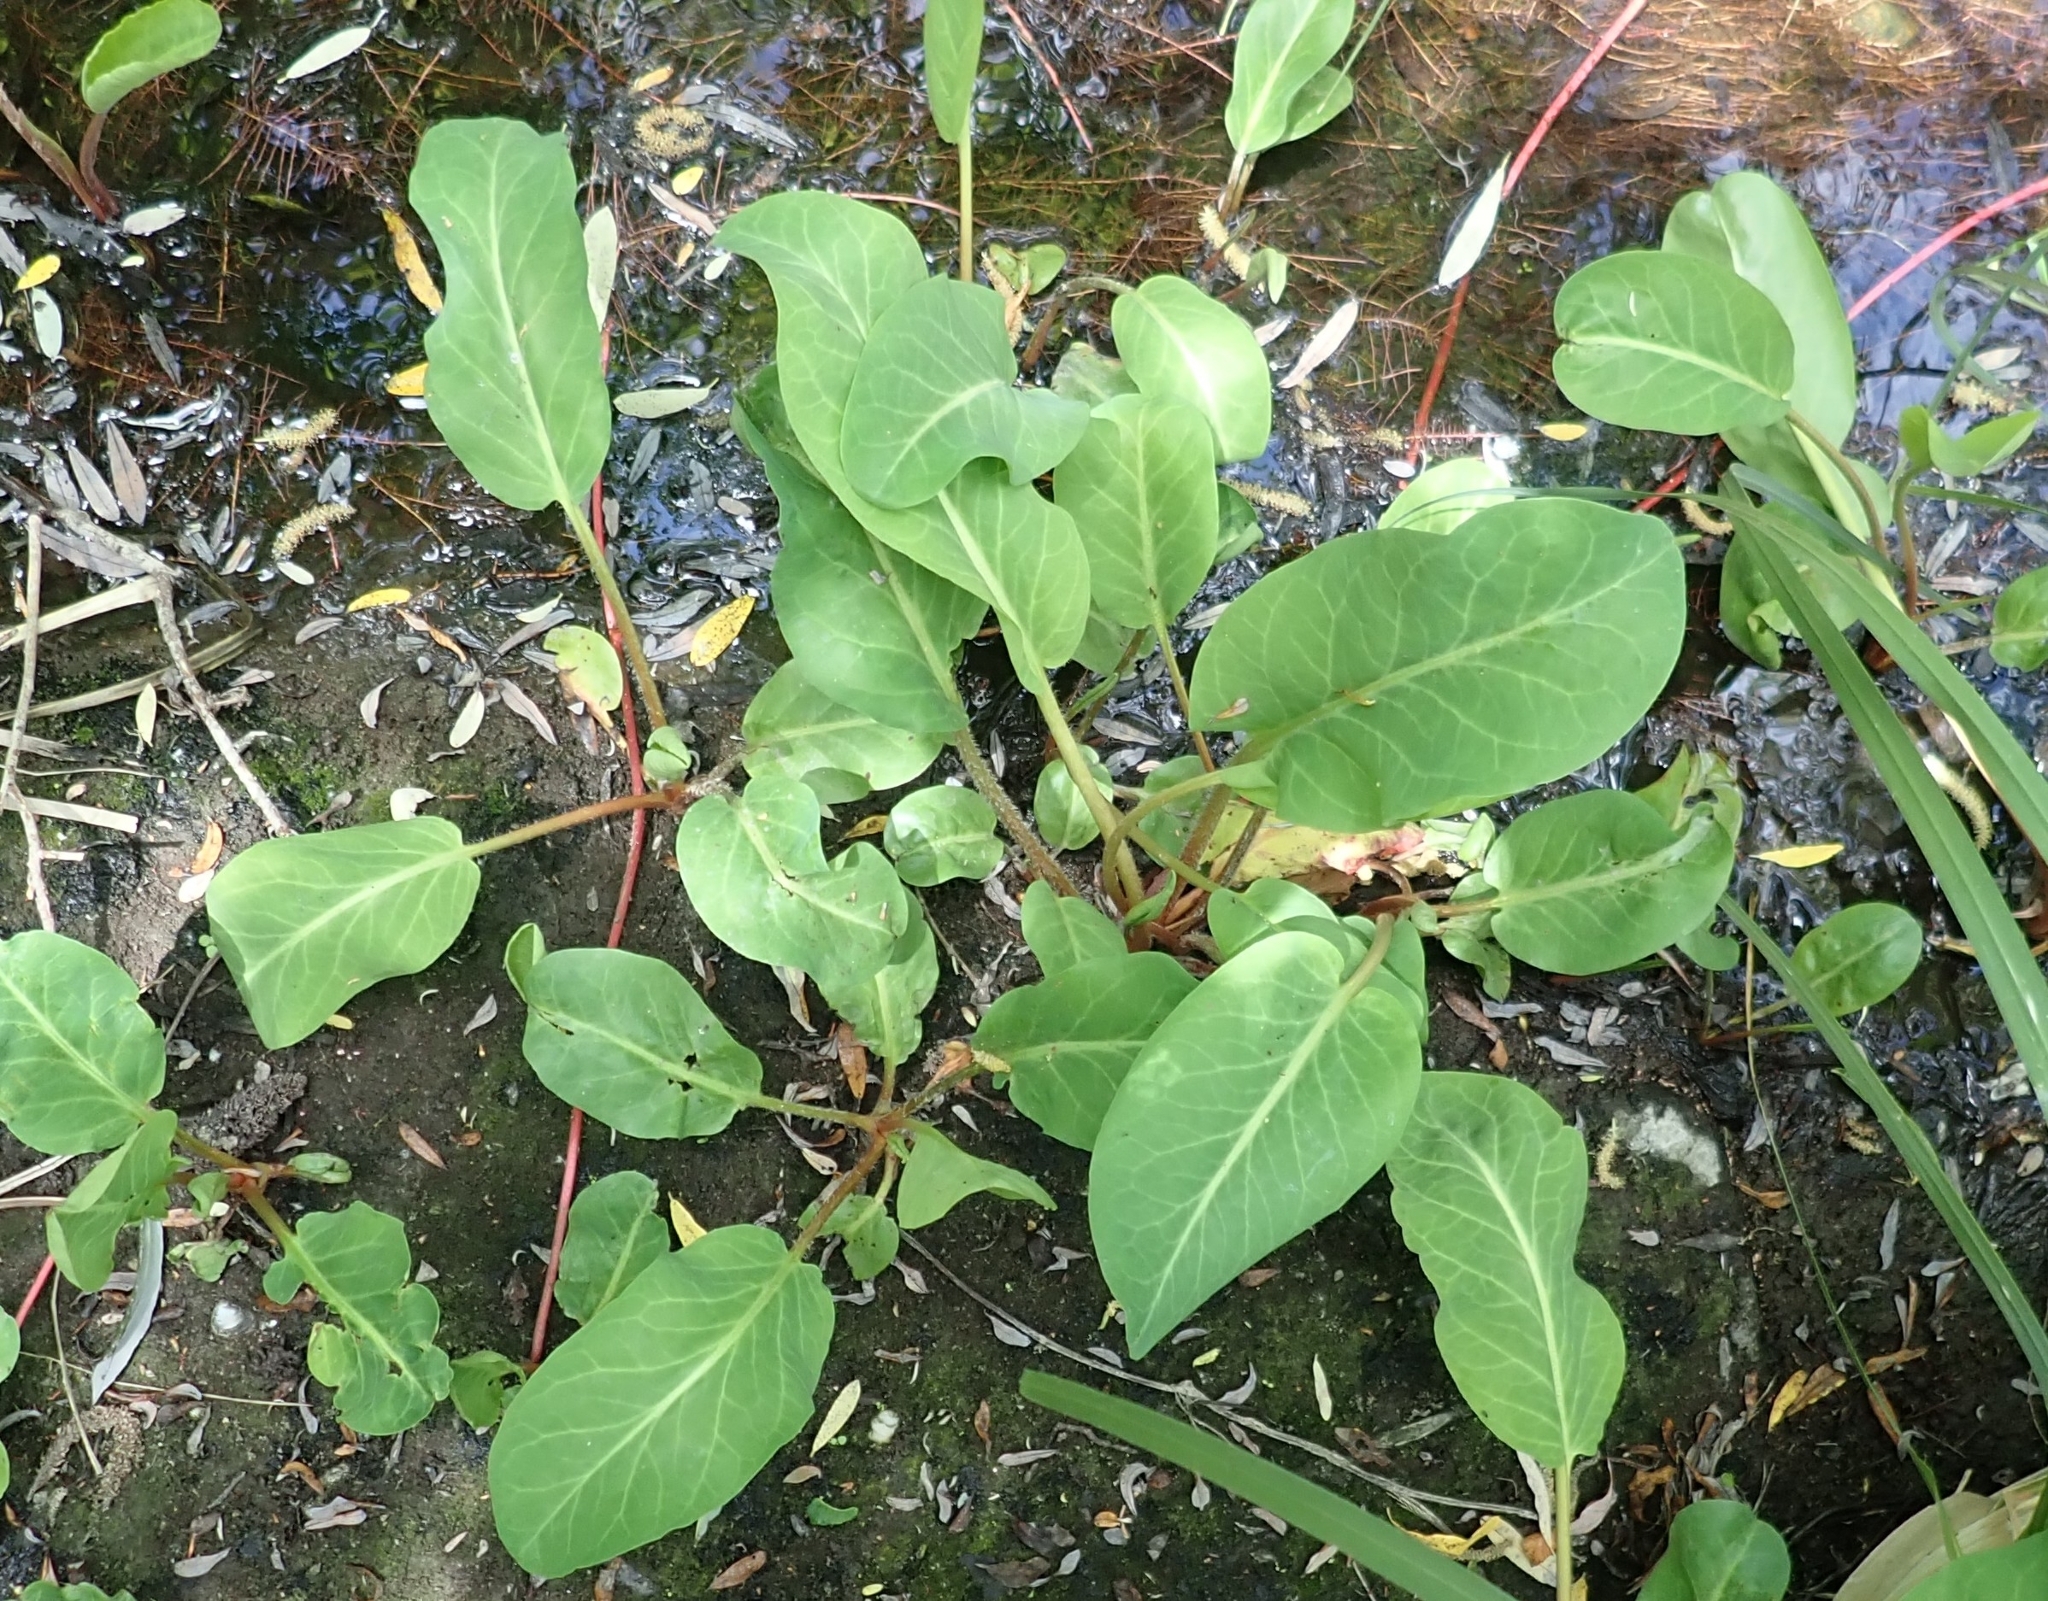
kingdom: Plantae
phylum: Tracheophyta
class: Magnoliopsida
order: Piperales
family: Saururaceae
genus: Anemopsis
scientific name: Anemopsis californica
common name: Apache-beads
